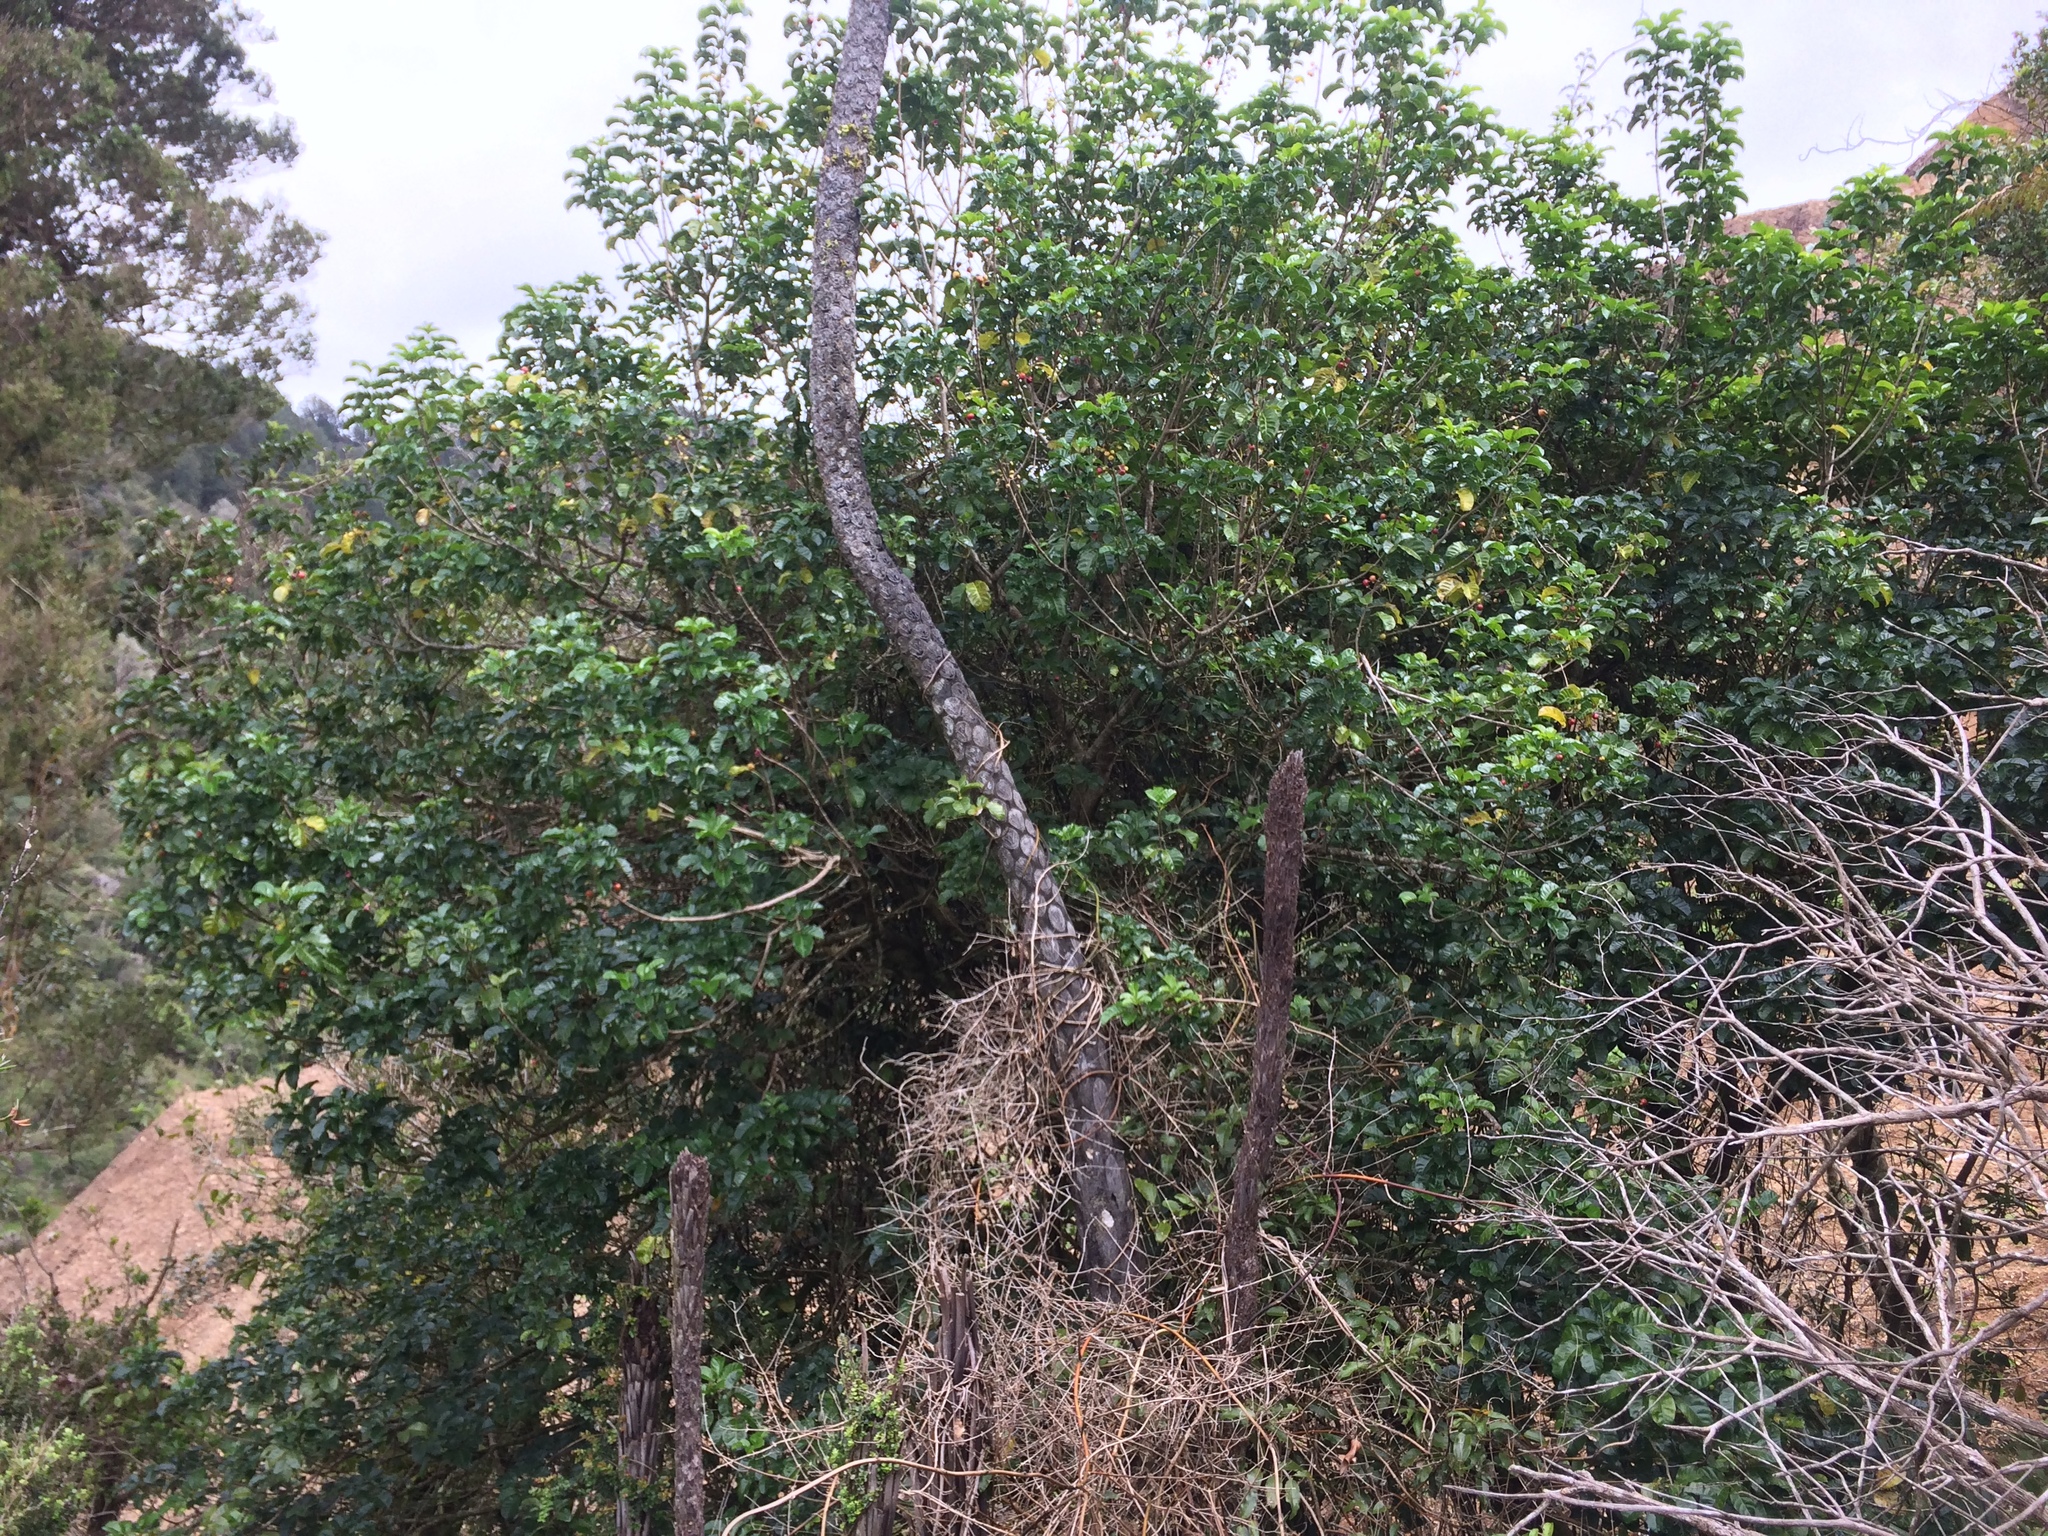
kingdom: Plantae
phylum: Tracheophyta
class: Magnoliopsida
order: Lamiales
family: Lamiaceae
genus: Vitex
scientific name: Vitex lucens
